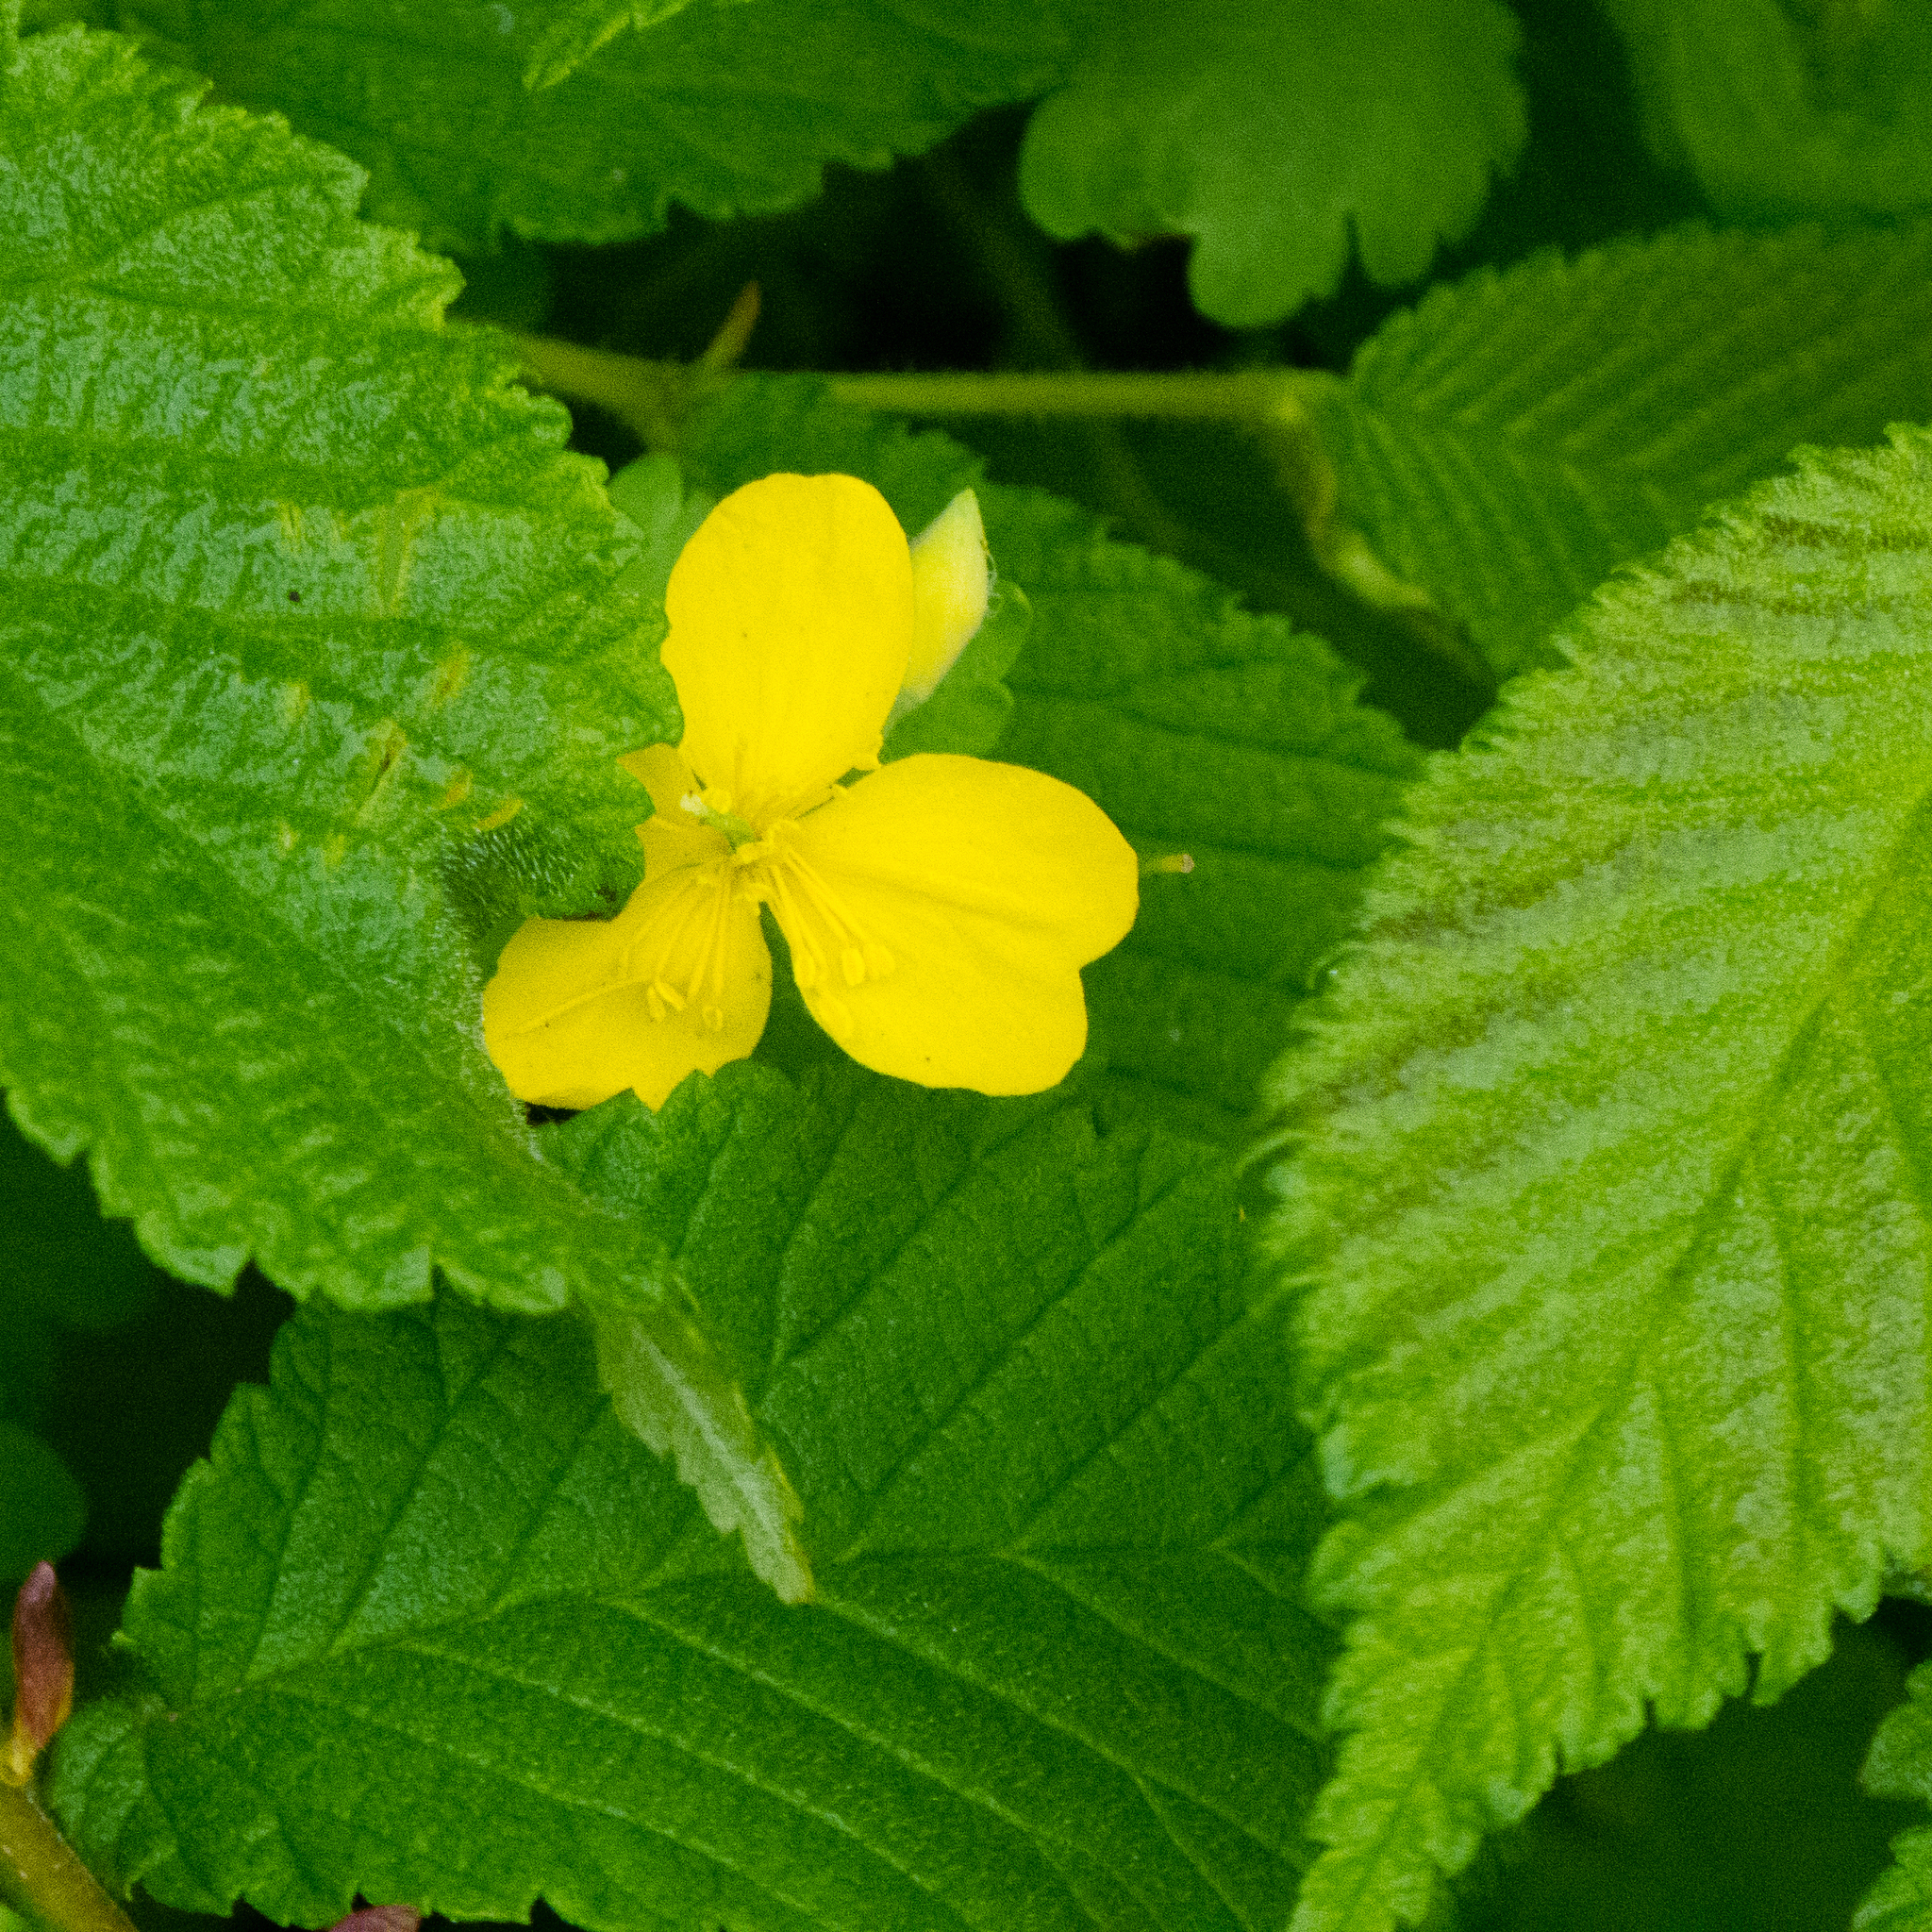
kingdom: Plantae
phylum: Tracheophyta
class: Magnoliopsida
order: Ranunculales
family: Papaveraceae
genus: Chelidonium
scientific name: Chelidonium majus
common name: Greater celandine
